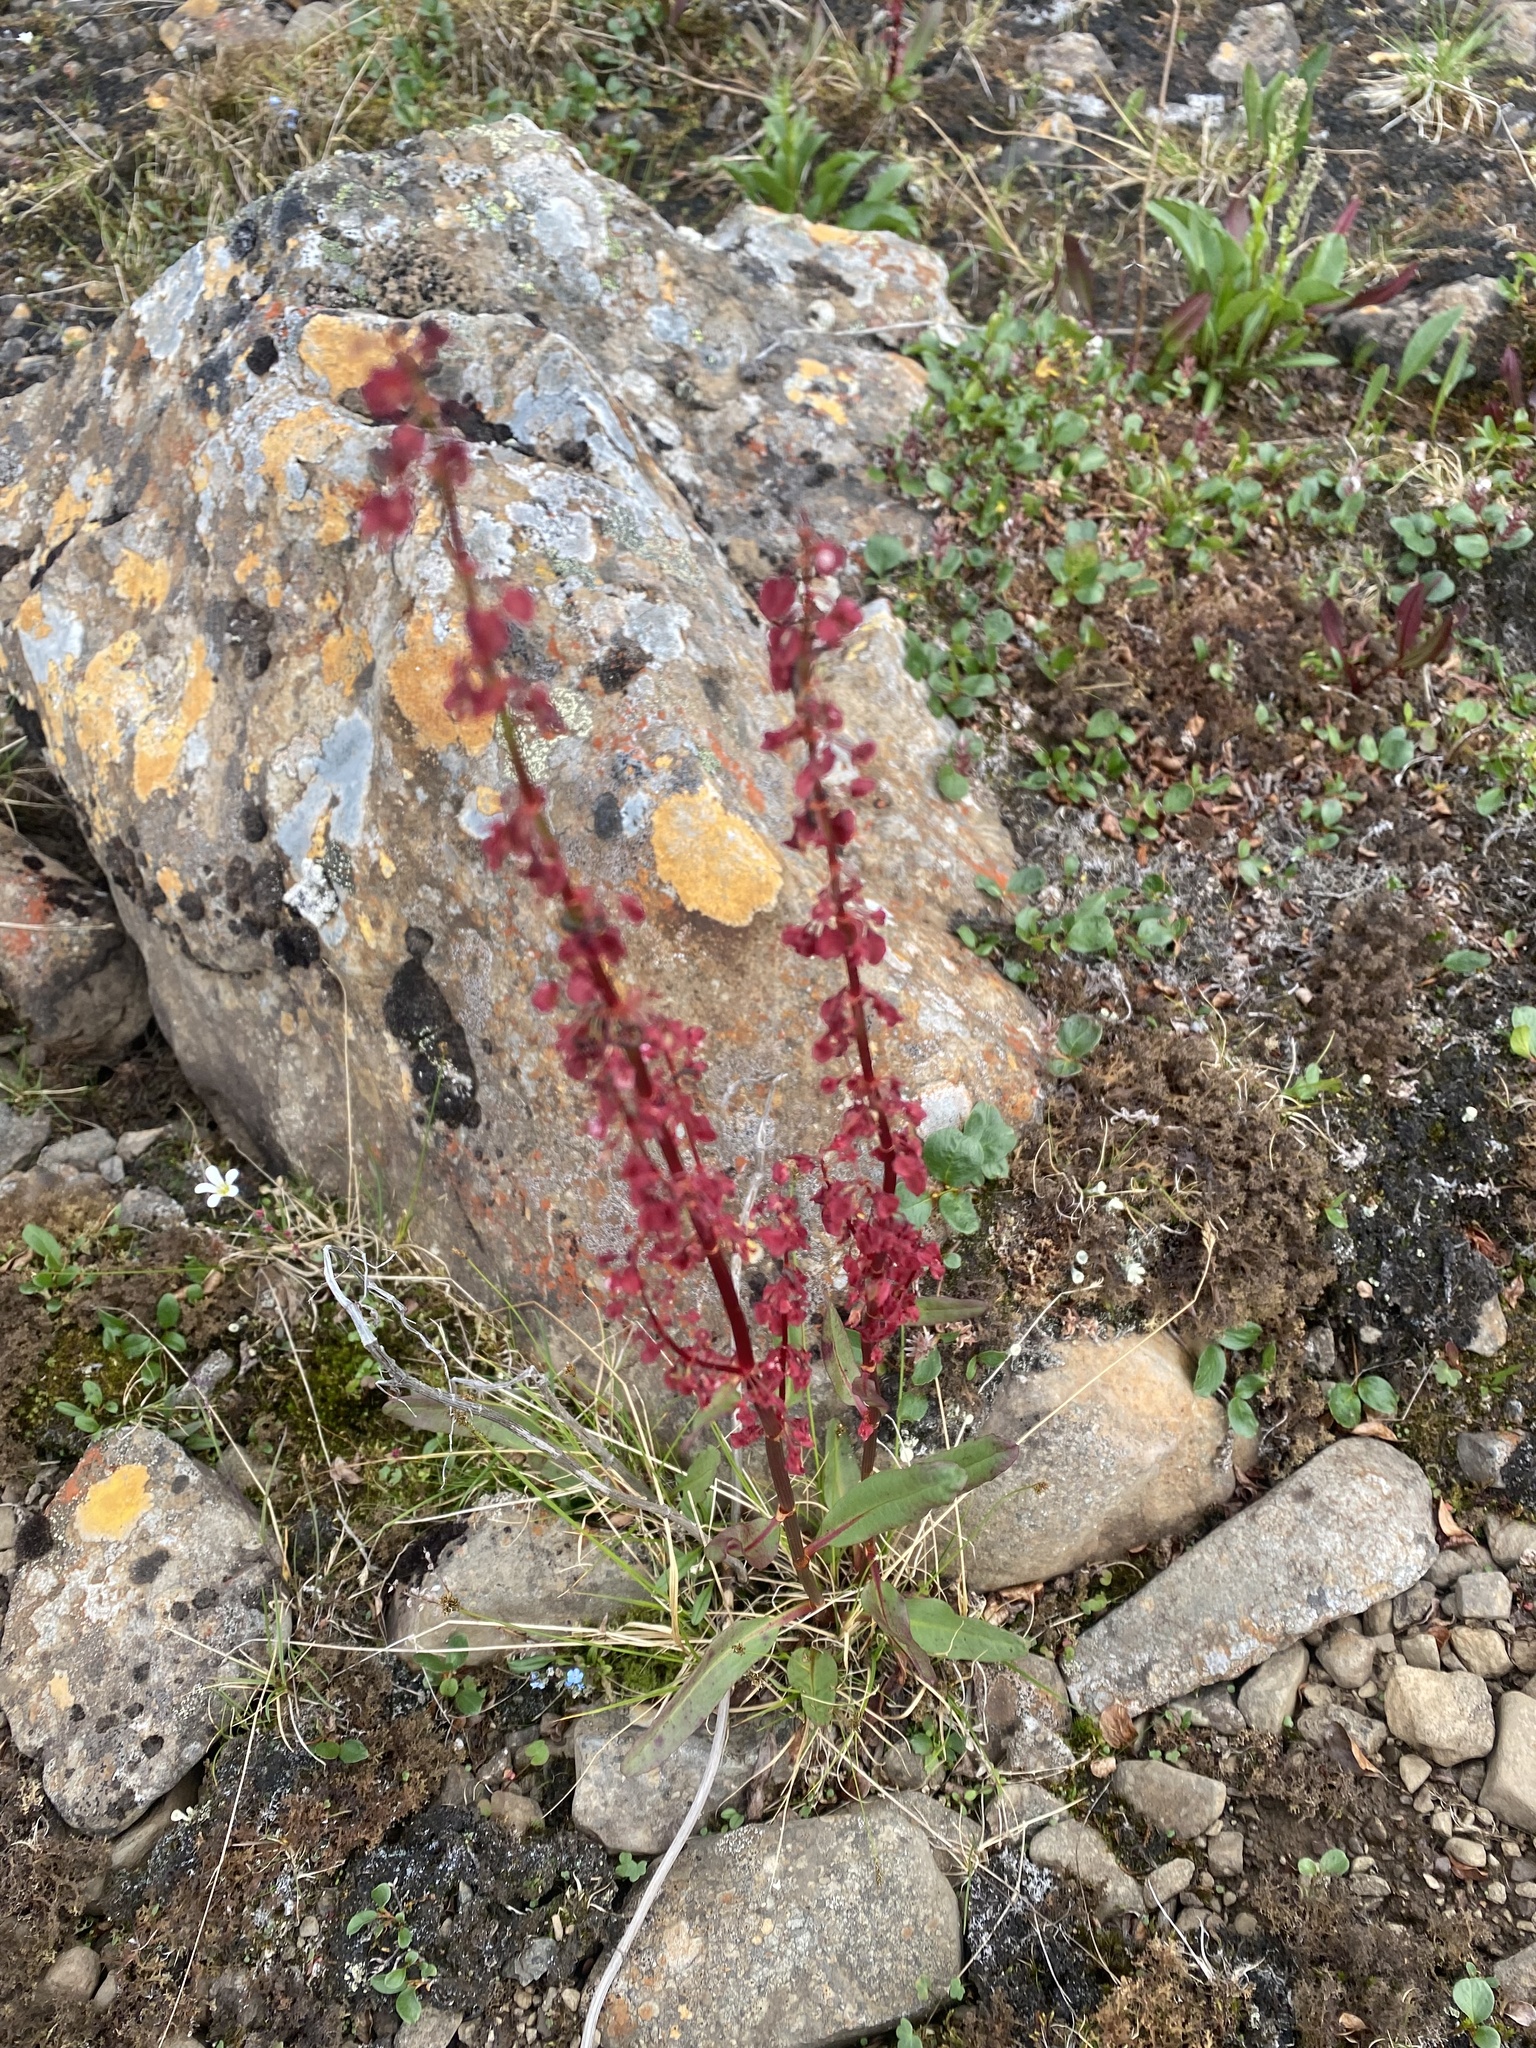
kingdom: Plantae
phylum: Tracheophyta
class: Magnoliopsida
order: Caryophyllales
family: Polygonaceae
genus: Rumex
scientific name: Rumex arcticus
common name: Arctic dock
